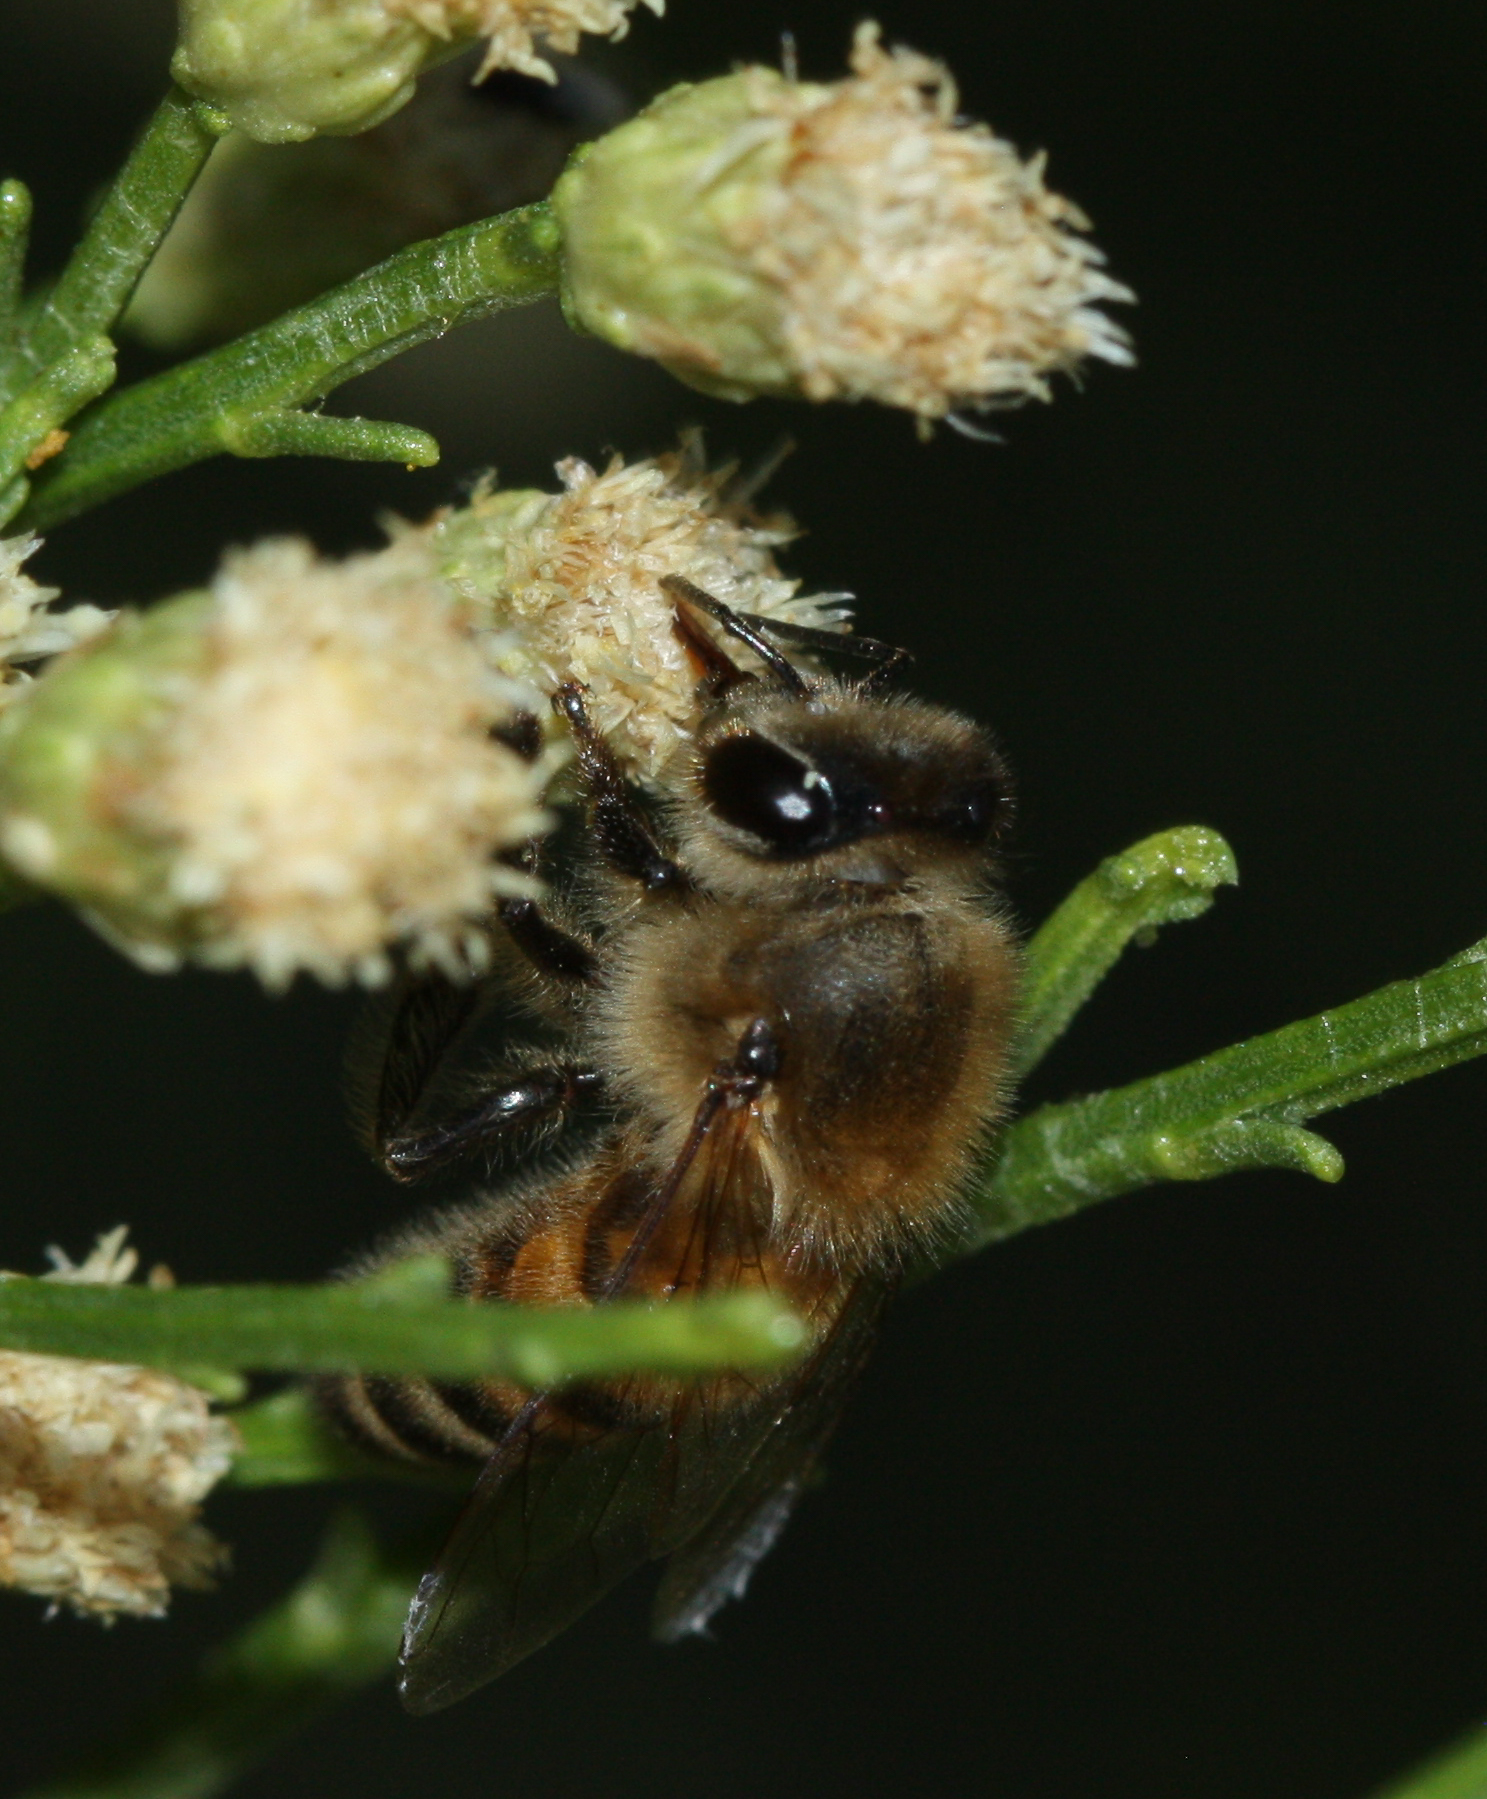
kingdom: Animalia
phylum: Arthropoda
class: Insecta
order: Hymenoptera
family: Apidae
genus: Apis
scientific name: Apis mellifera
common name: Honey bee
